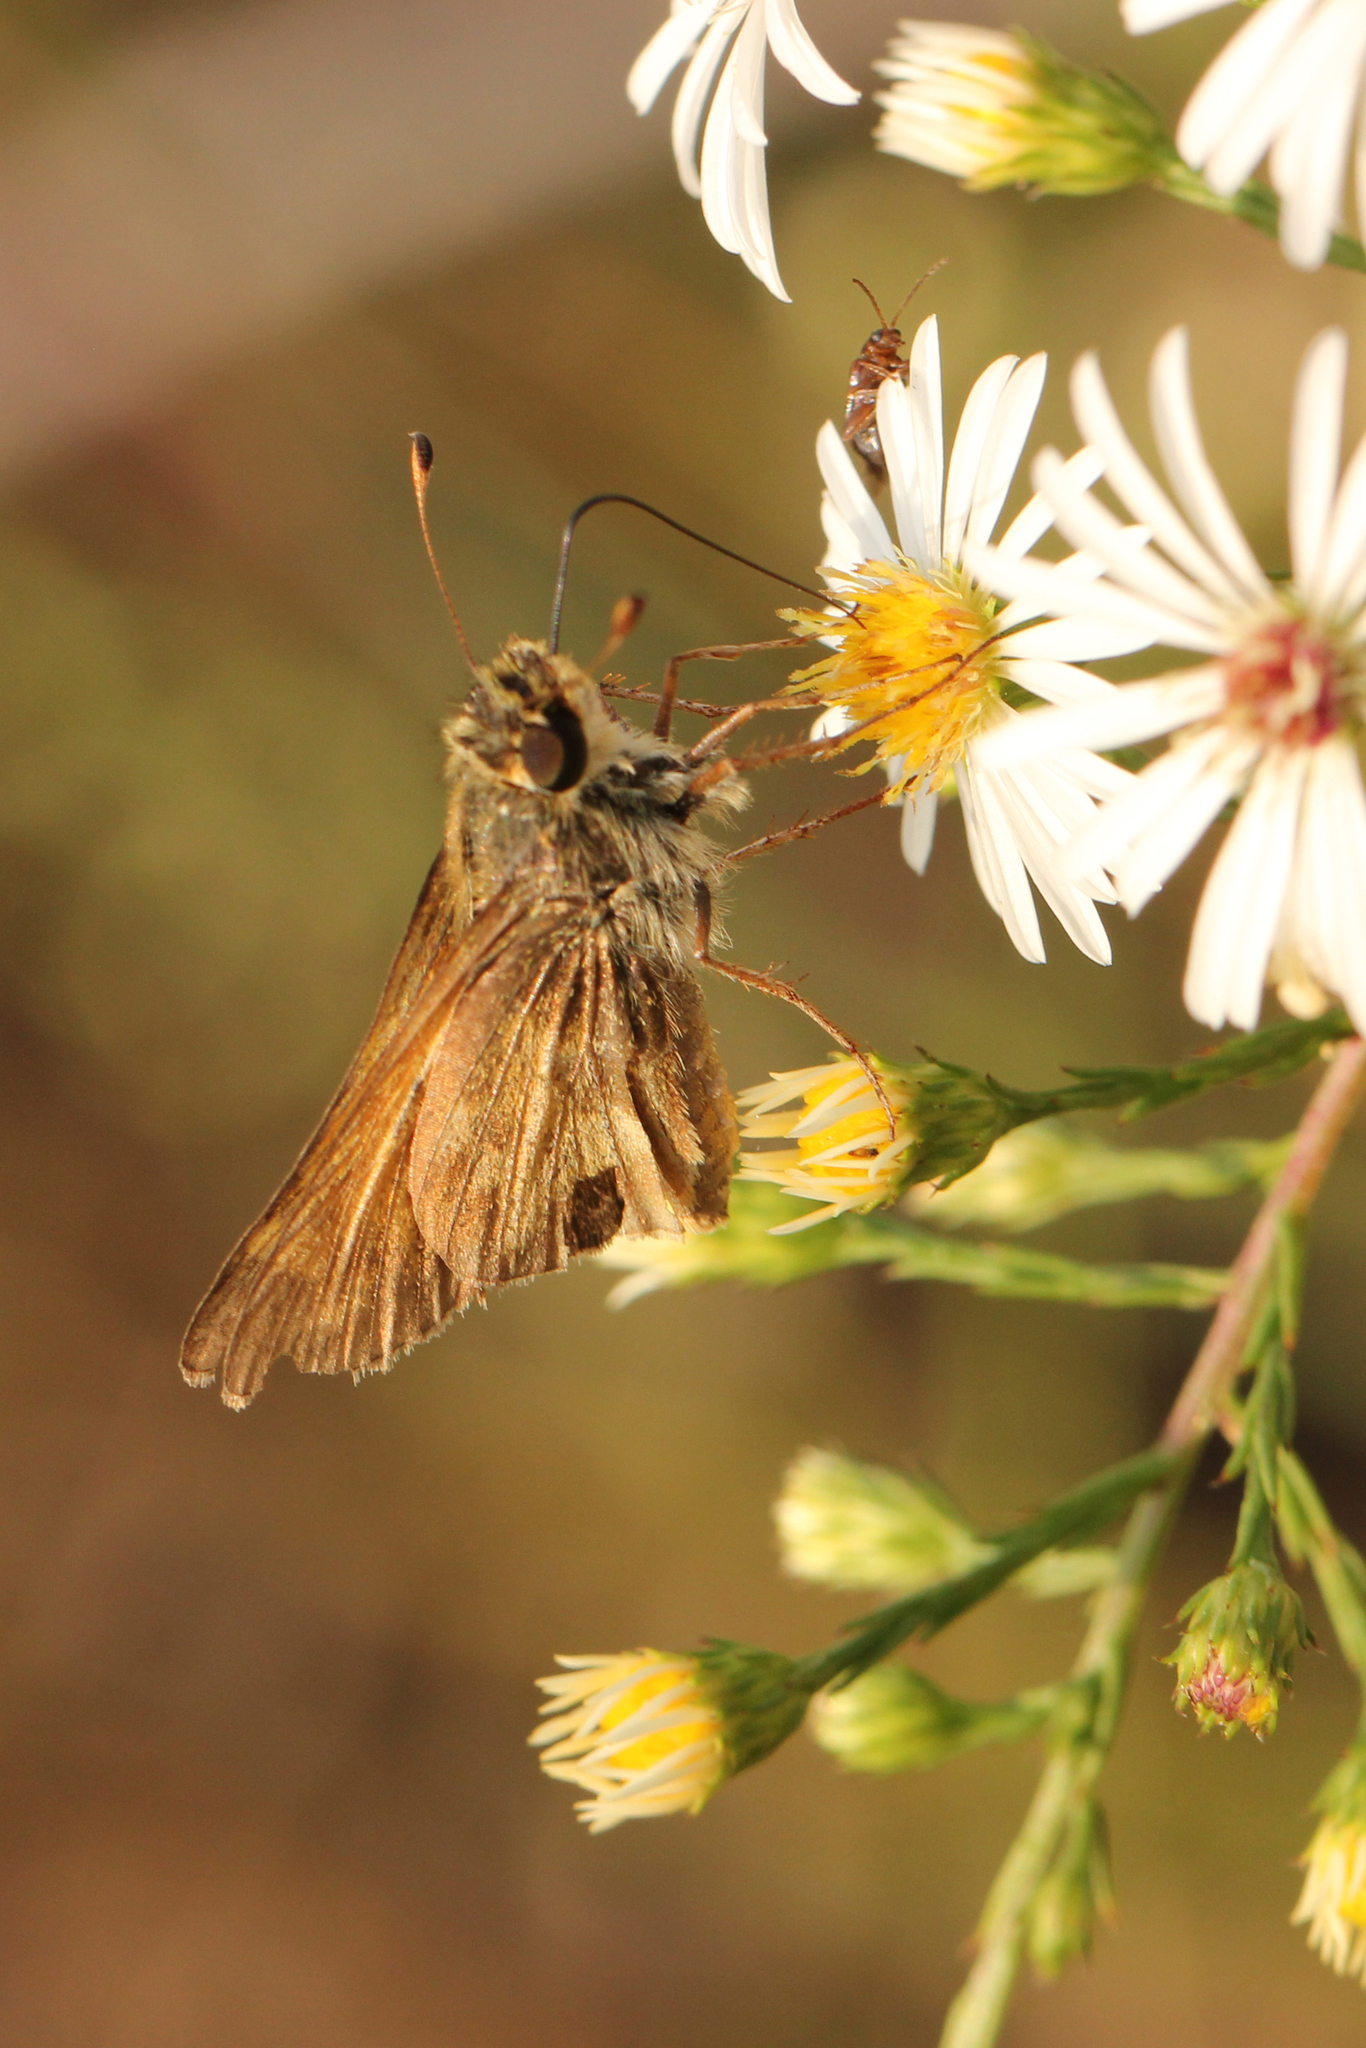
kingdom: Animalia
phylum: Arthropoda
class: Insecta
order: Lepidoptera
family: Hesperiidae
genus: Atalopedes
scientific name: Atalopedes
